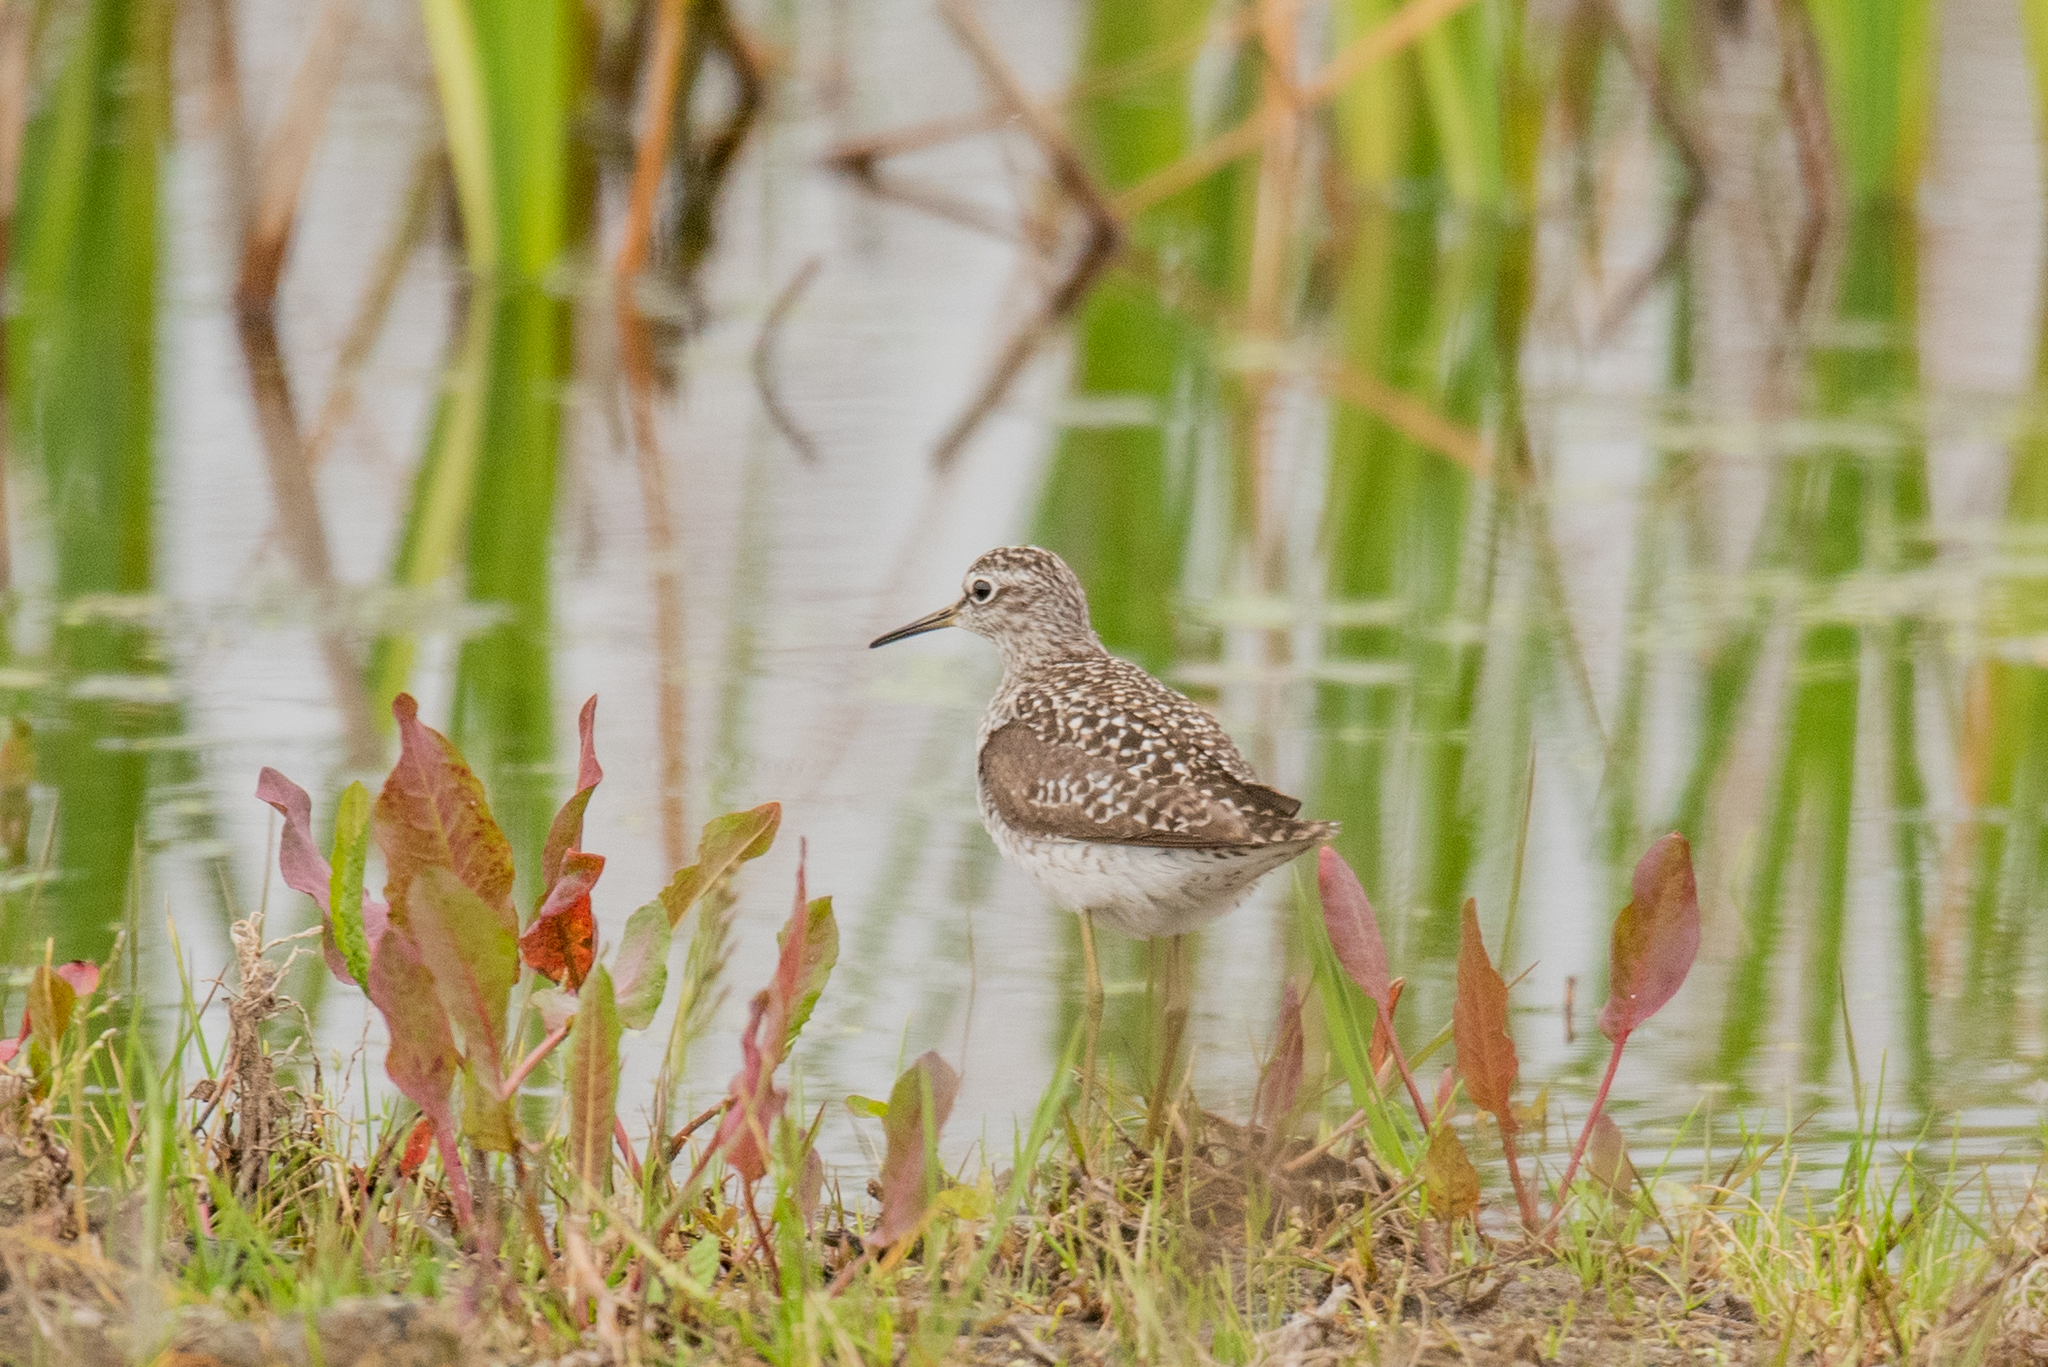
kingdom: Animalia
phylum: Chordata
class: Aves
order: Charadriiformes
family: Scolopacidae
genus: Tringa
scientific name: Tringa glareola
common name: Wood sandpiper
